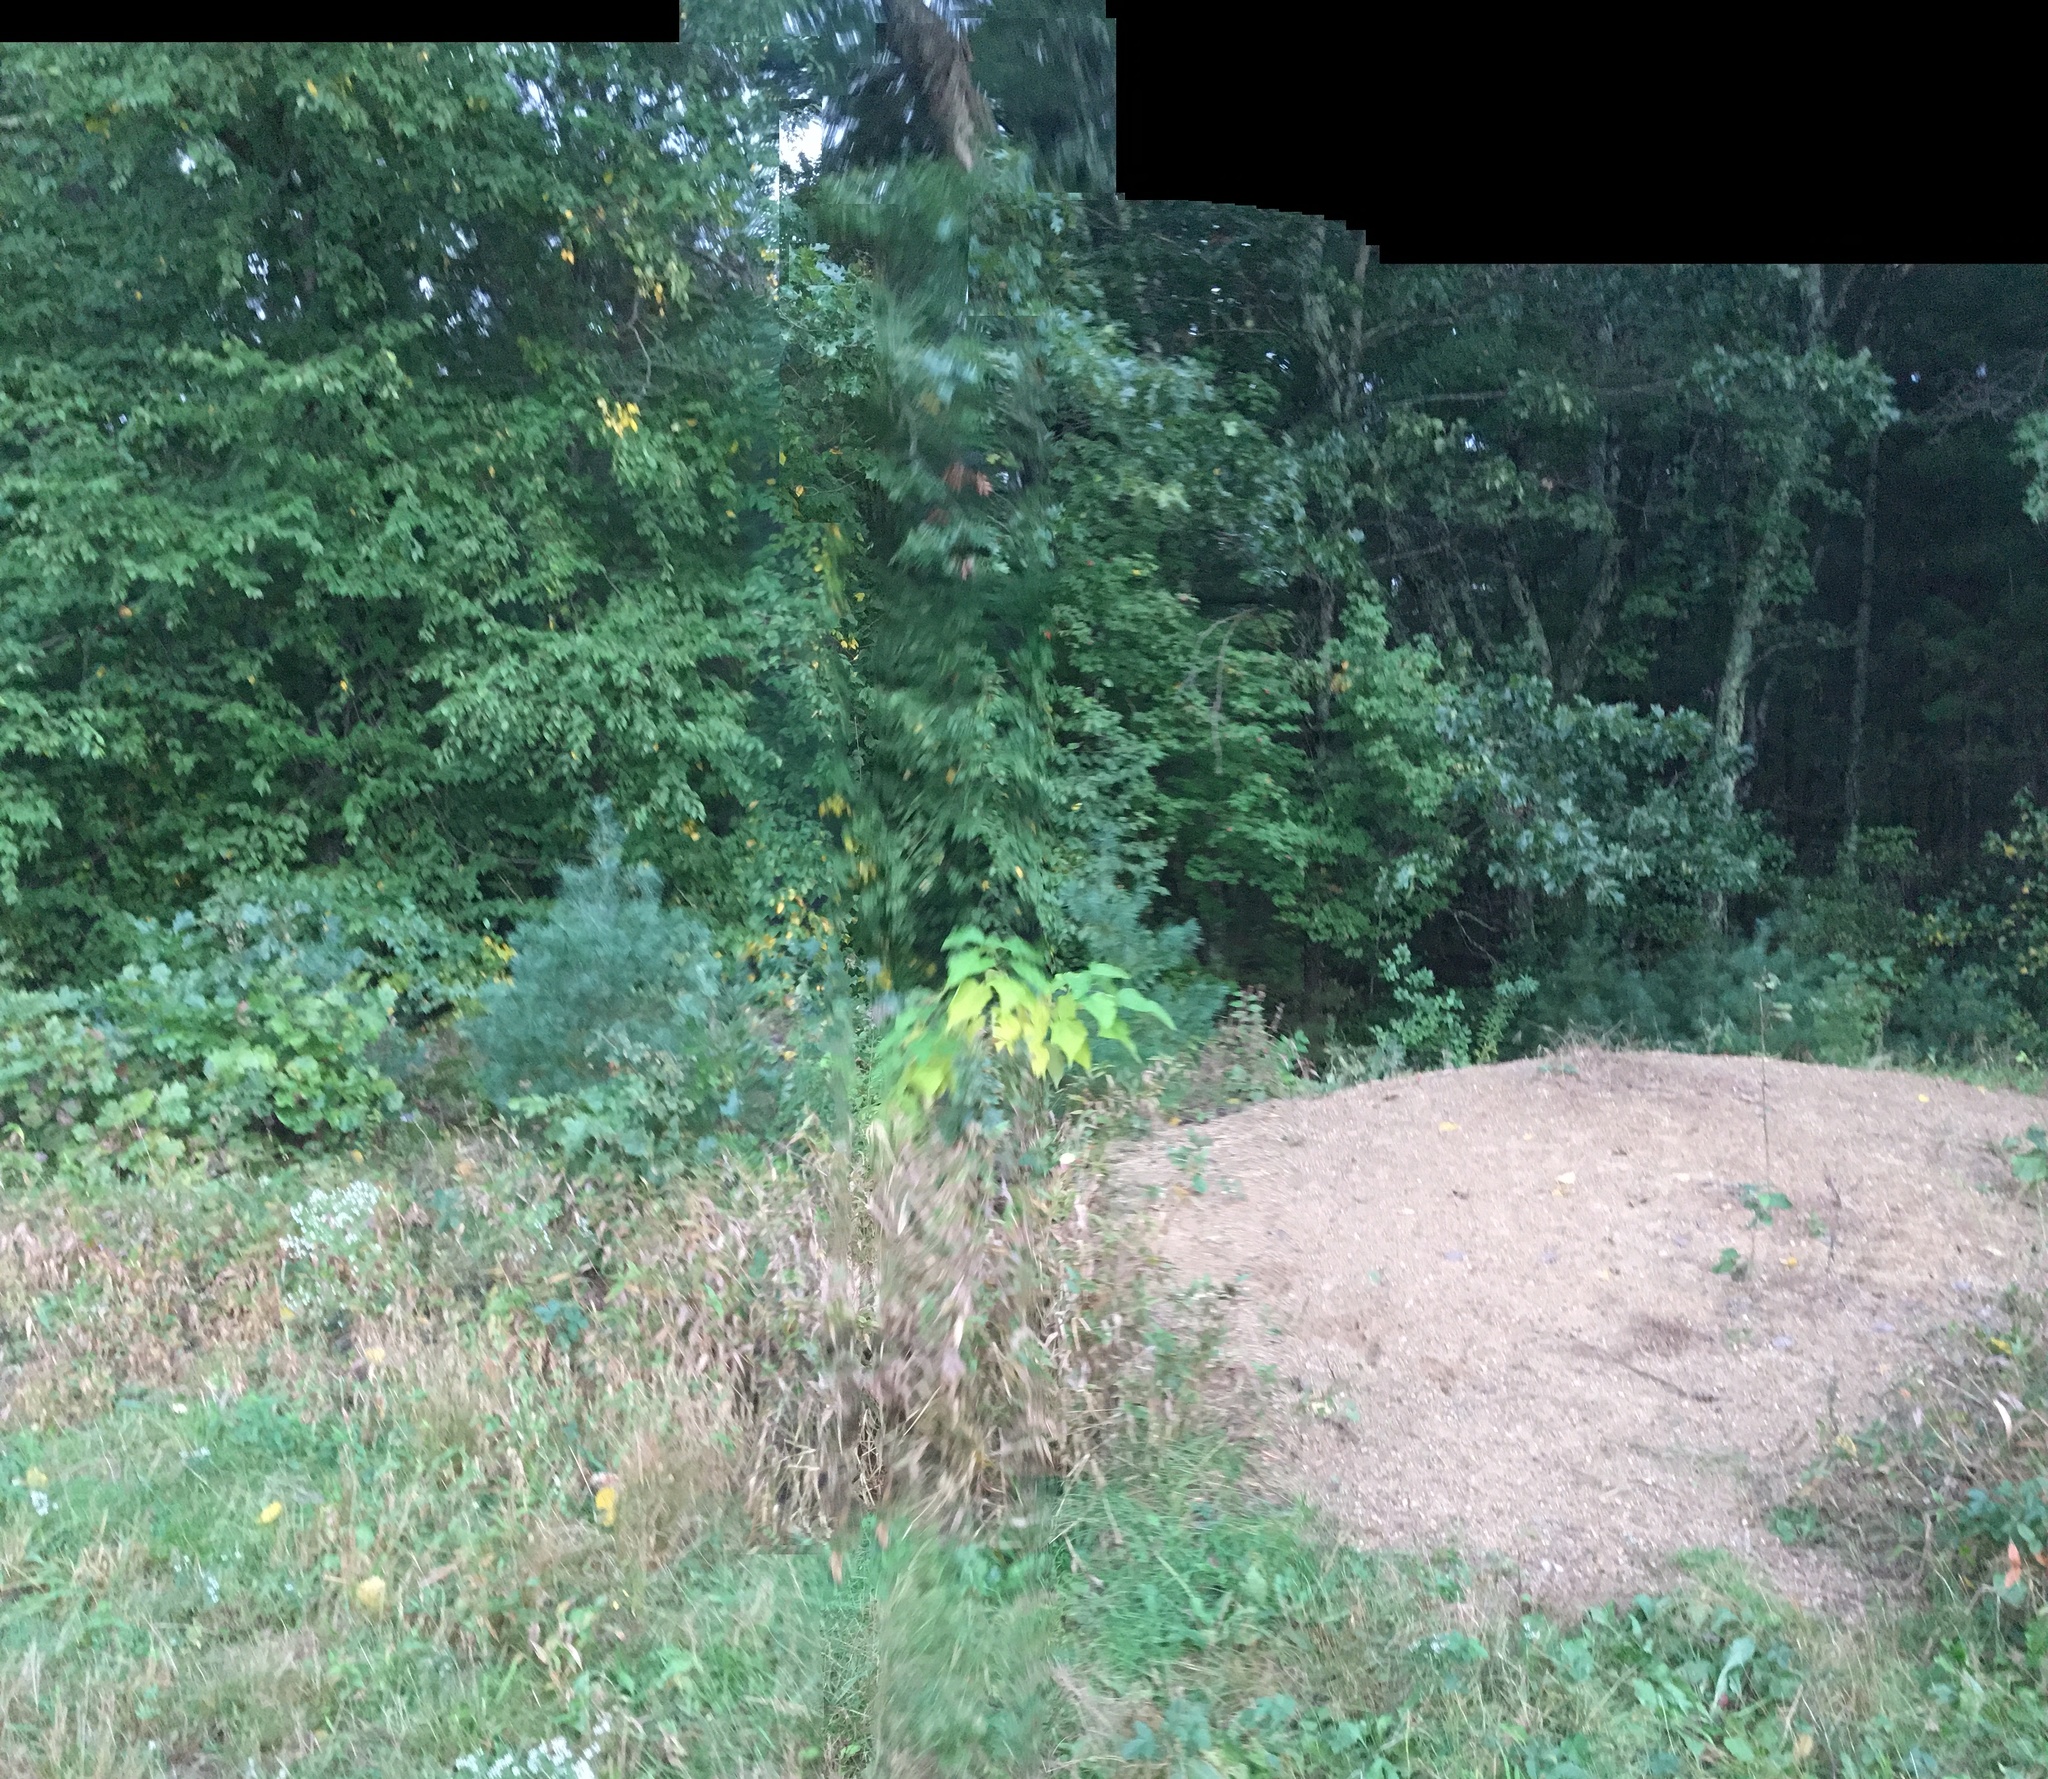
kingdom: Plantae
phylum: Tracheophyta
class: Magnoliopsida
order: Lamiales
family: Bignoniaceae
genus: Catalpa
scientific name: Catalpa speciosa
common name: Northern catalpa
